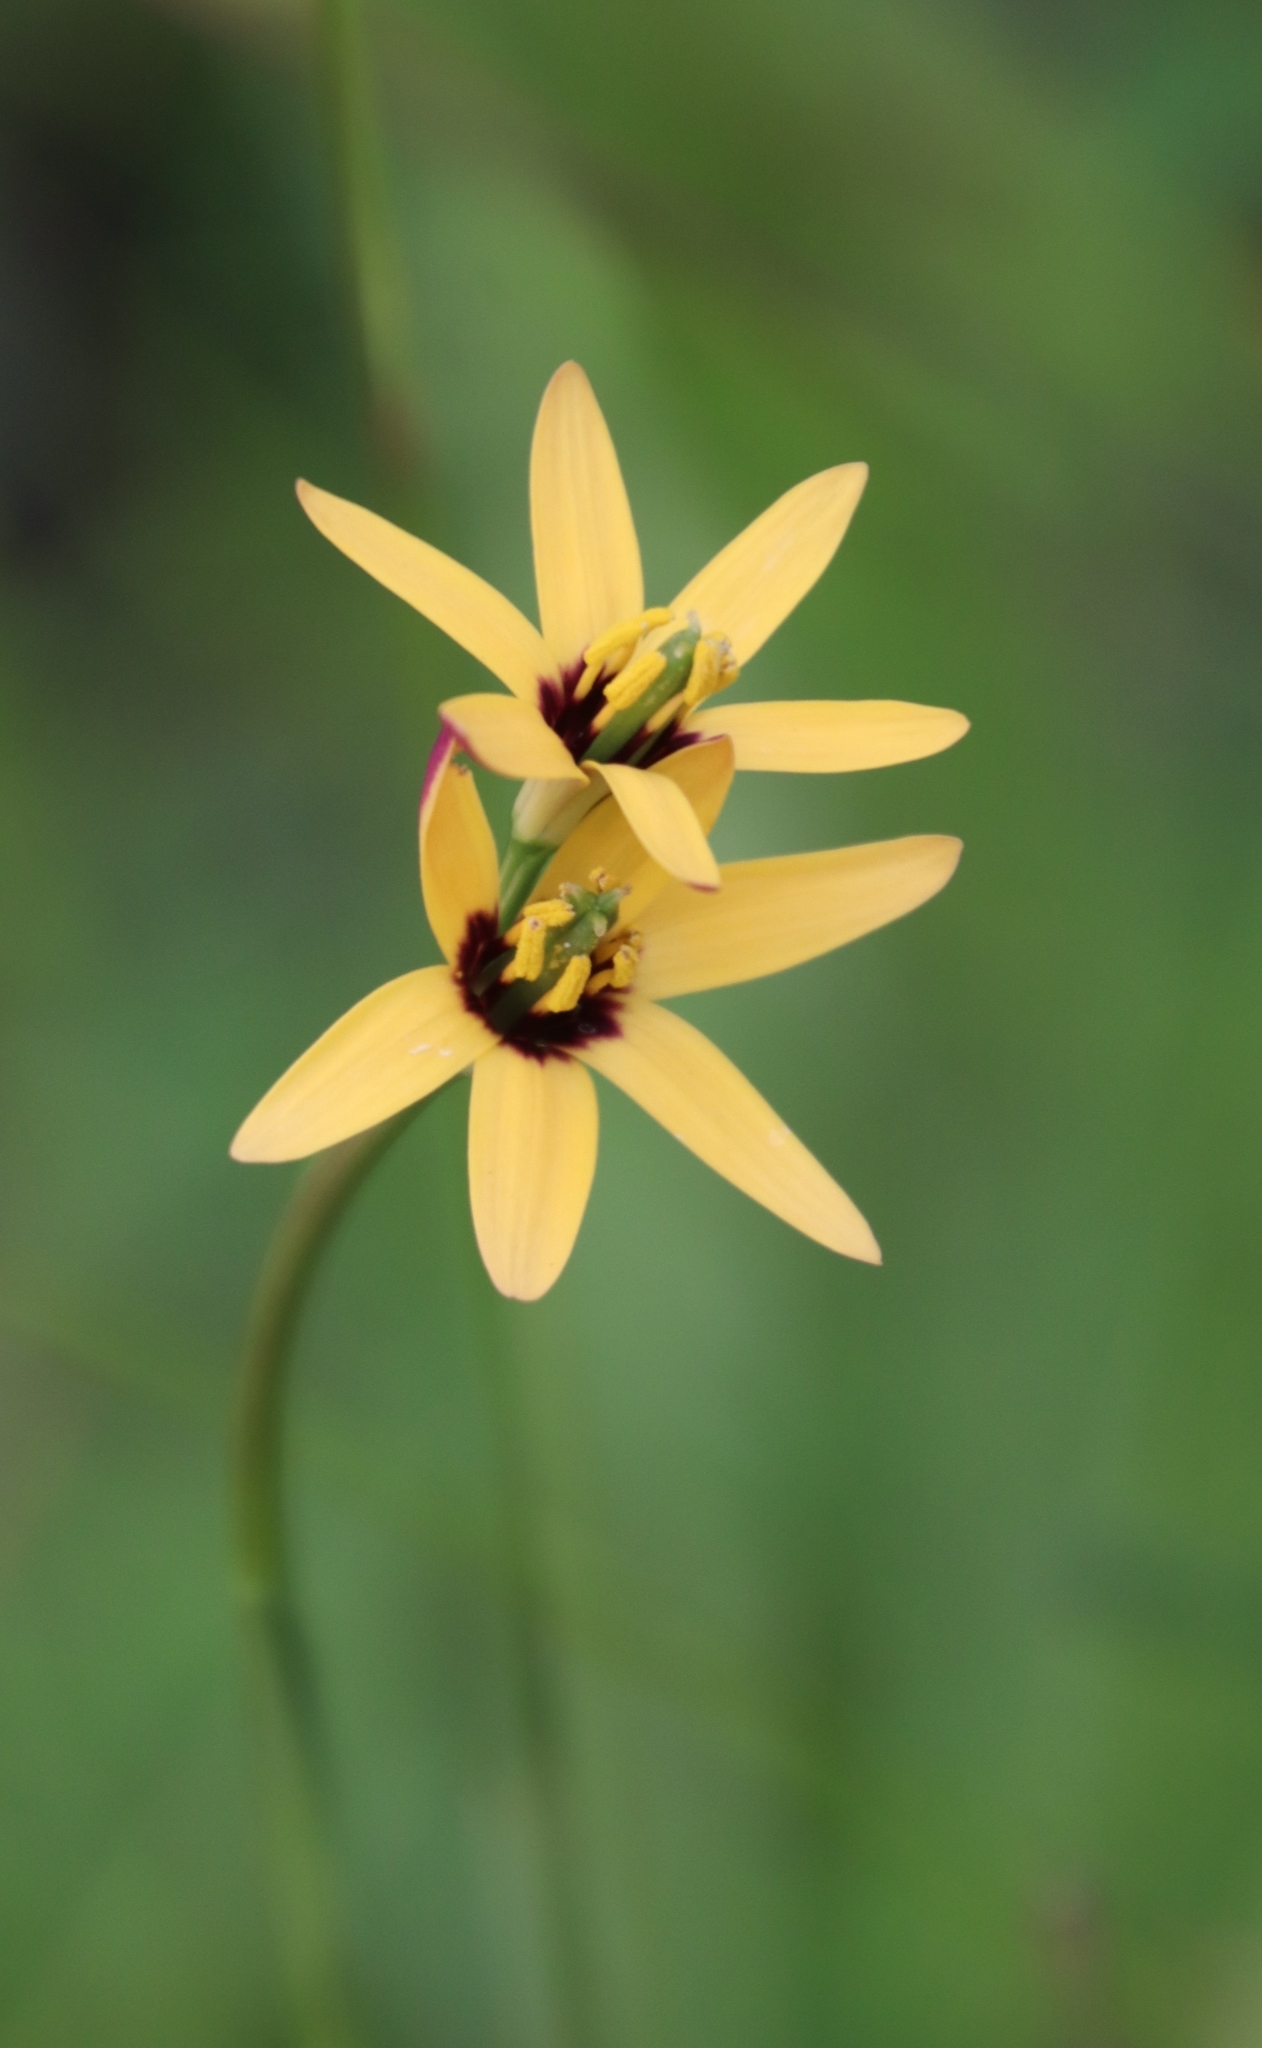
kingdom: Plantae
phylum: Tracheophyta
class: Liliopsida
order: Liliales
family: Colchicaceae
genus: Baeometra
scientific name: Baeometra uniflora
